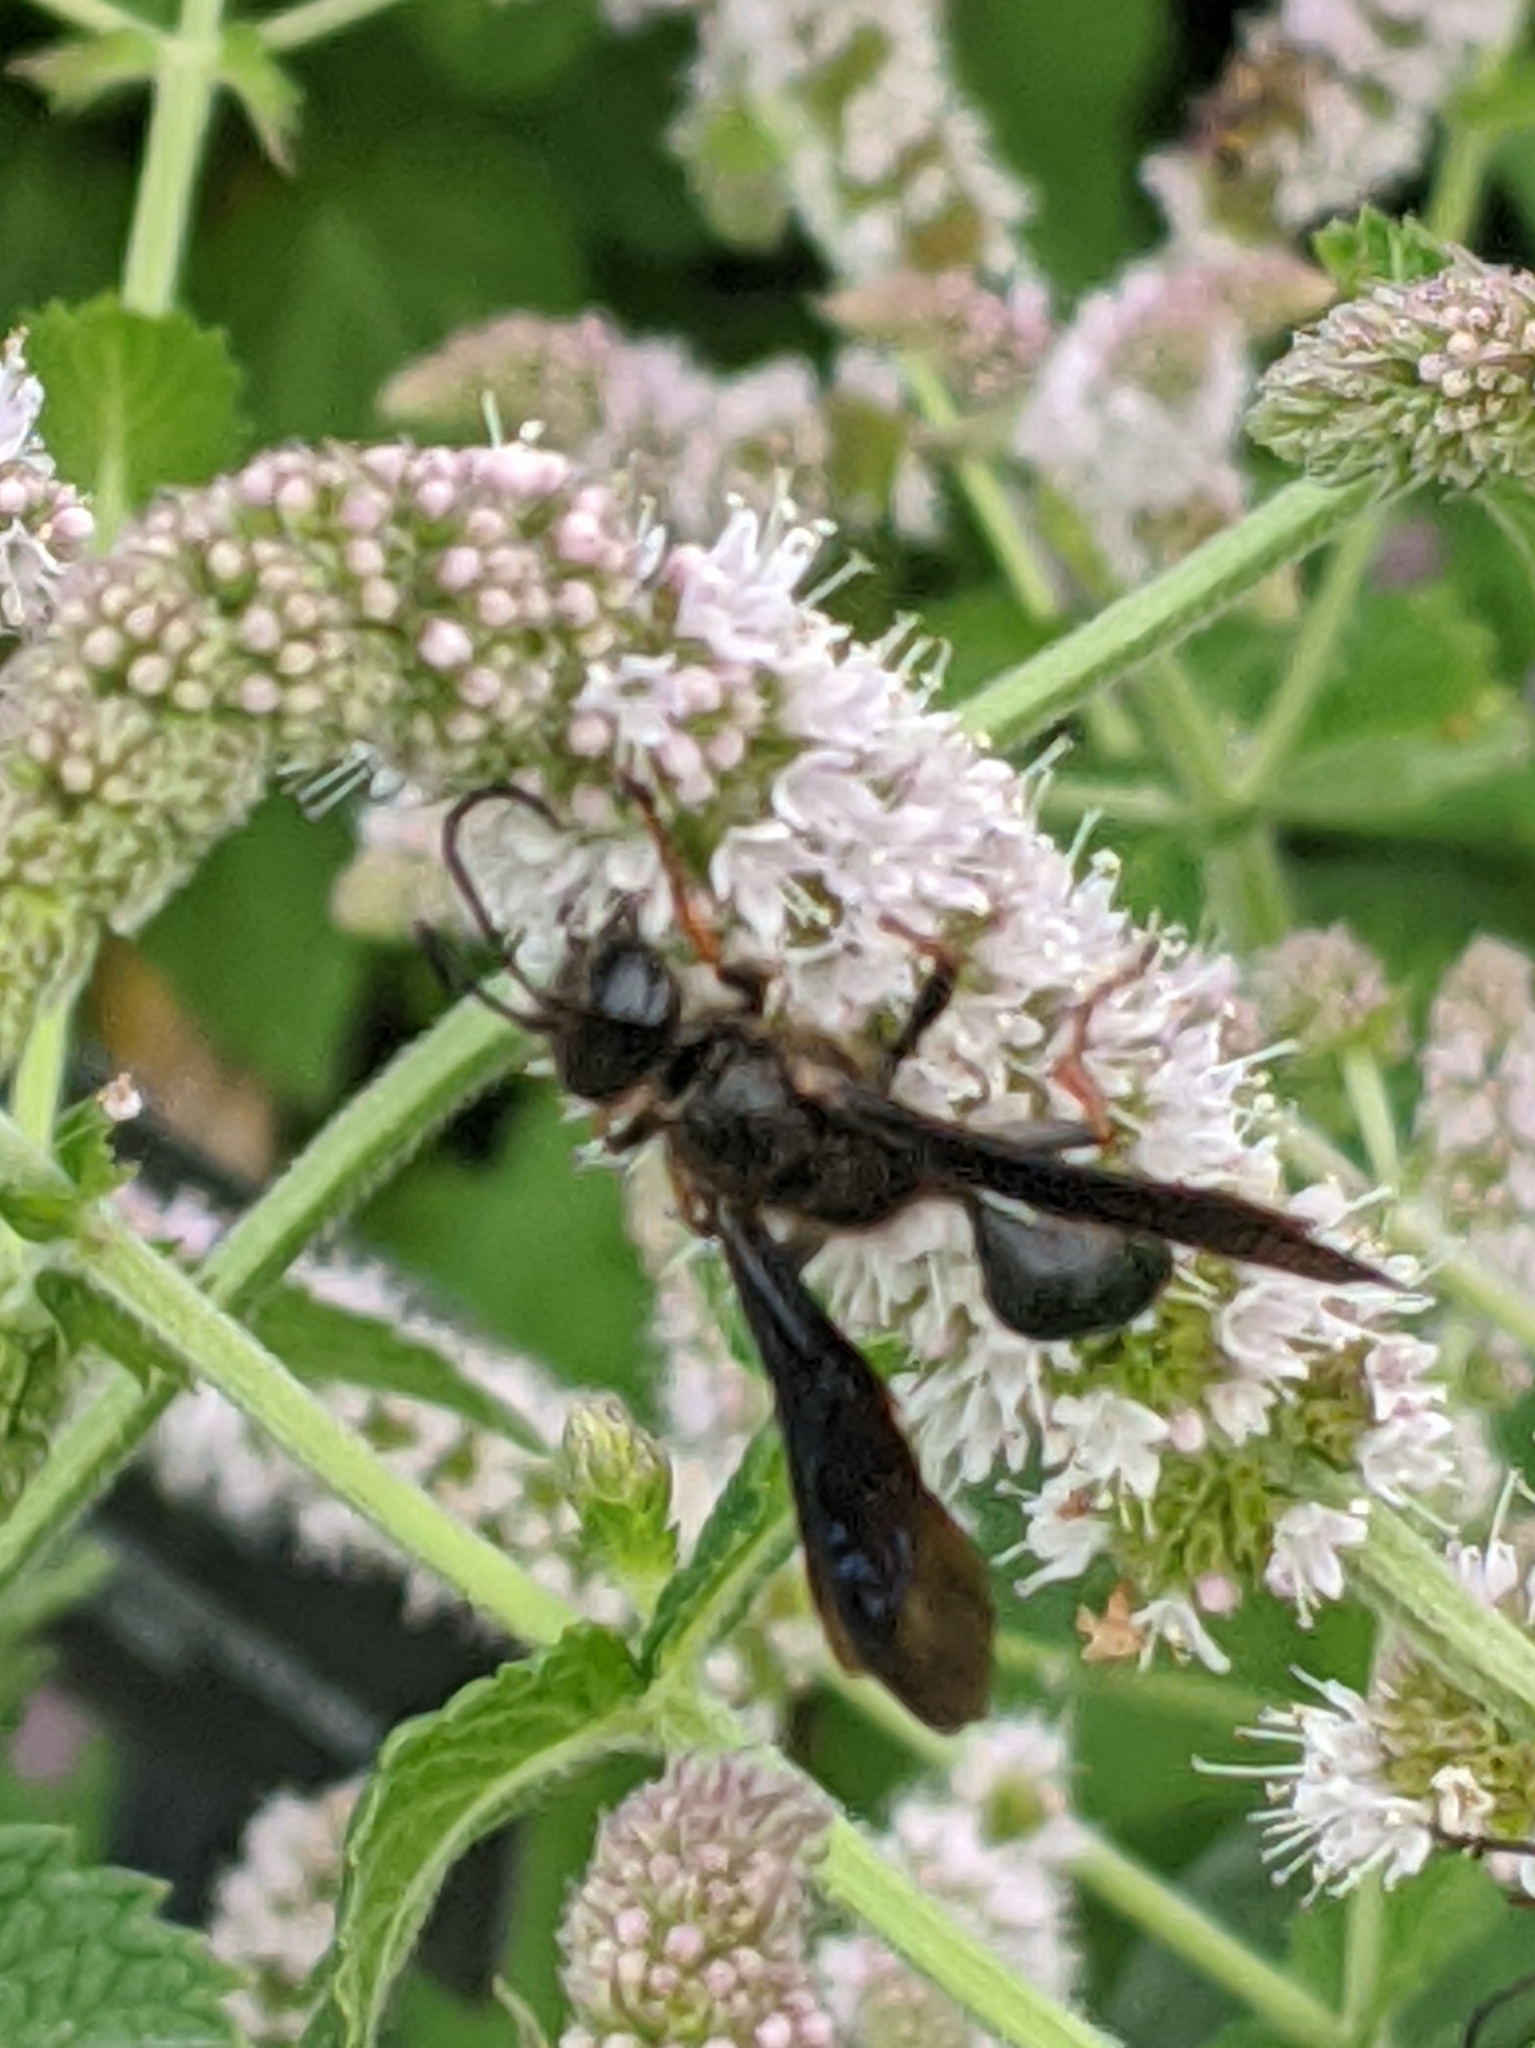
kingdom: Animalia
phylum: Arthropoda
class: Insecta
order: Hymenoptera
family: Sphecidae
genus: Isodontia
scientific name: Isodontia auripes
